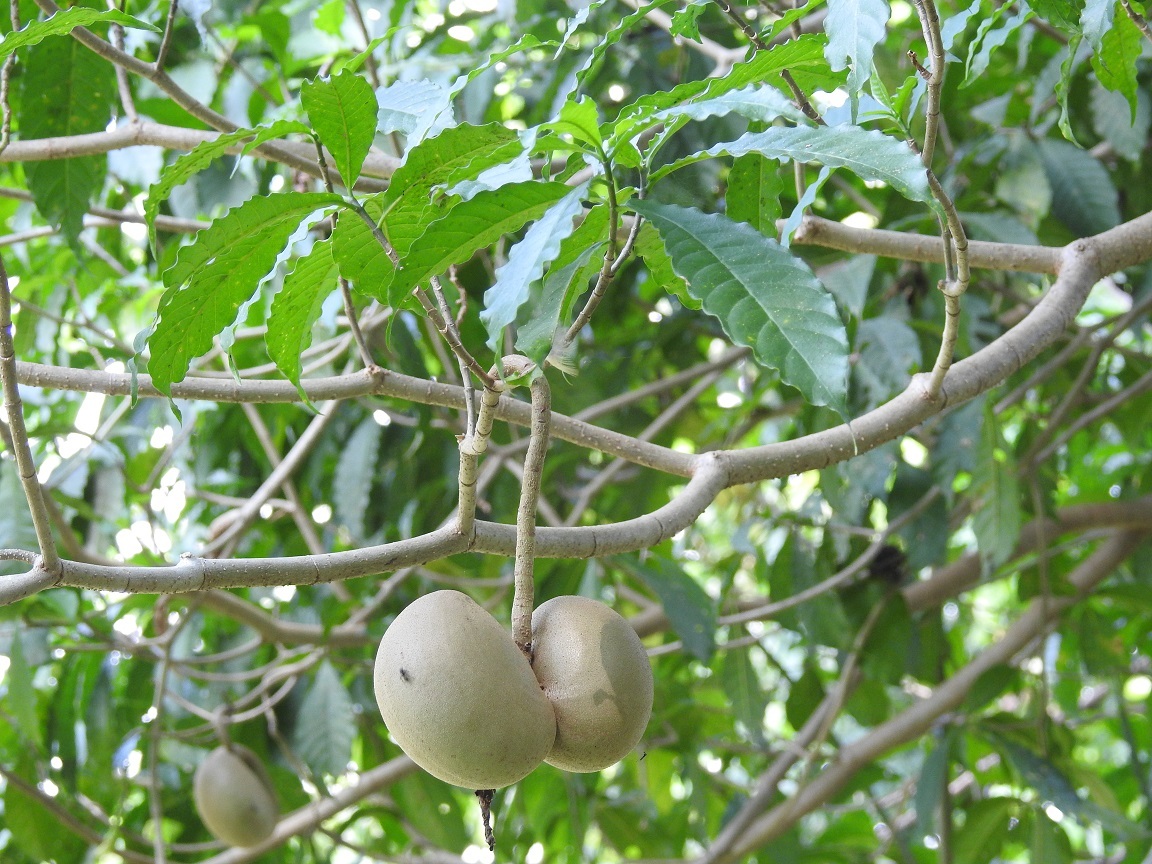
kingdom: Plantae
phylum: Tracheophyta
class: Magnoliopsida
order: Gentianales
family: Apocynaceae
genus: Tabernaemontana
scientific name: Tabernaemontana donnell-smithii
